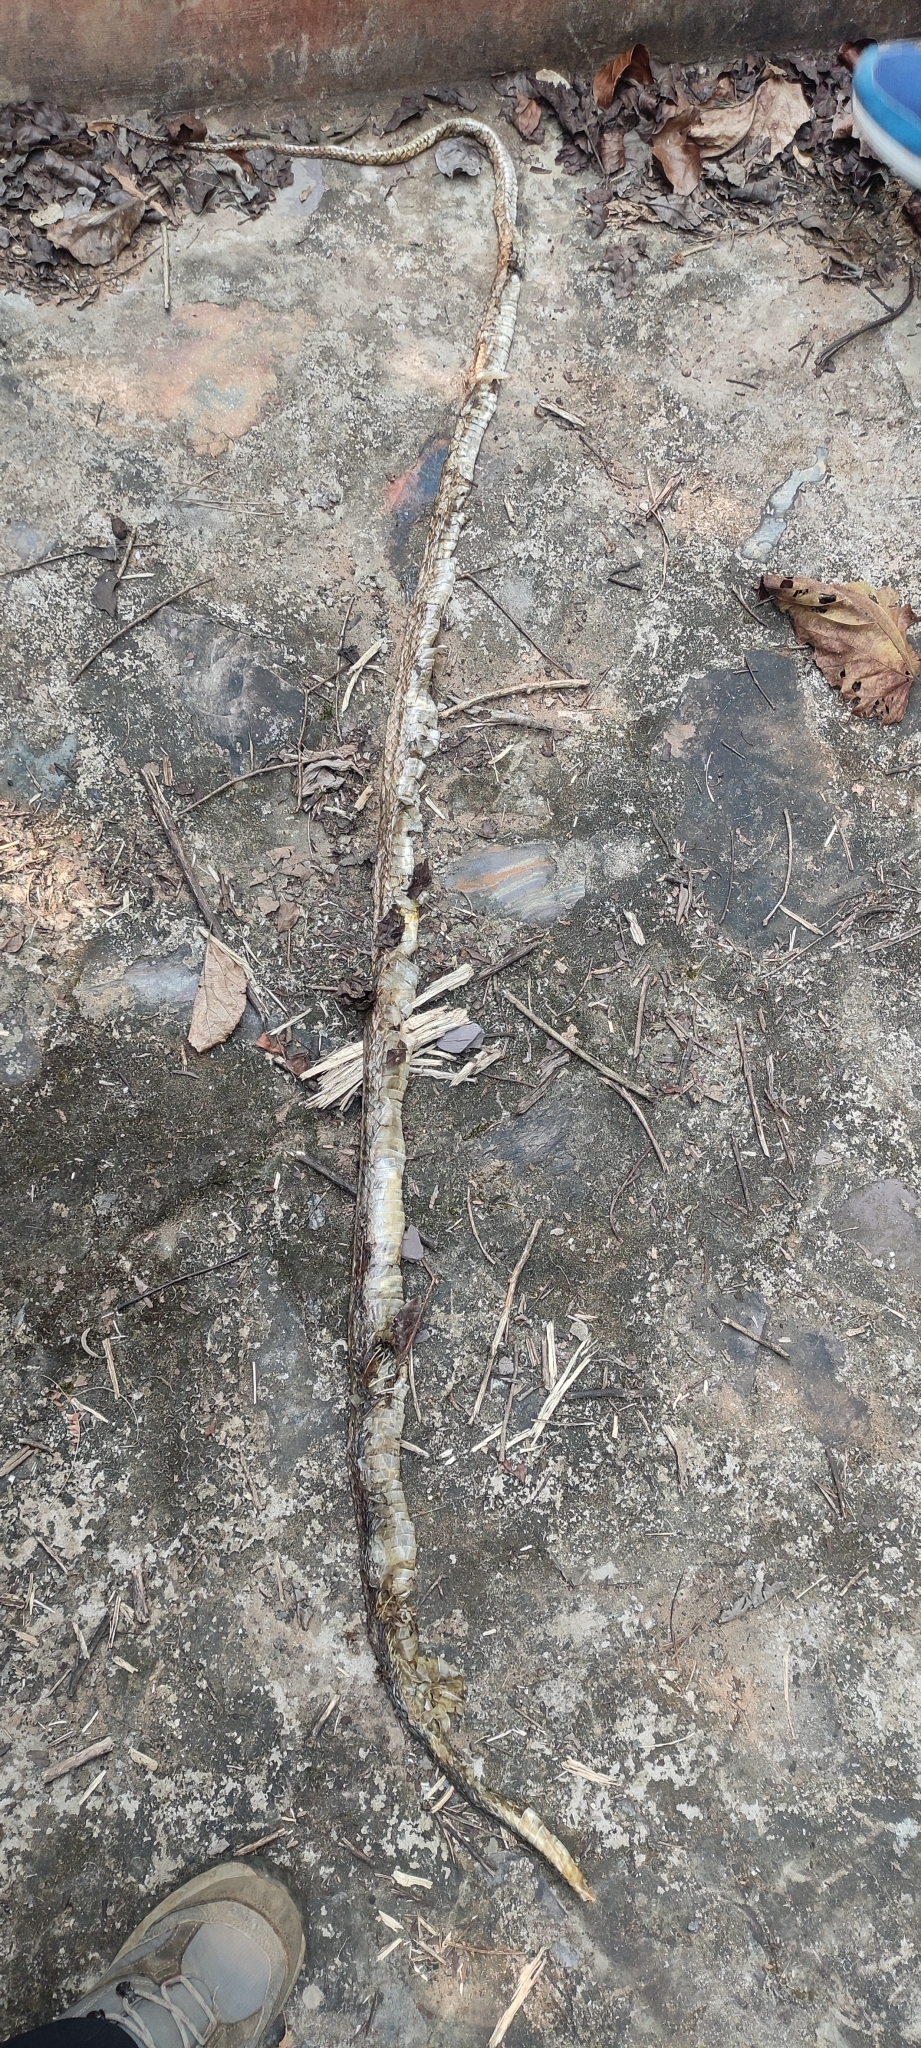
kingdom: Animalia
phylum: Chordata
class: Squamata
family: Colubridae
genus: Ptyas
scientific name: Ptyas mucosa
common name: Oriental ratsnake
